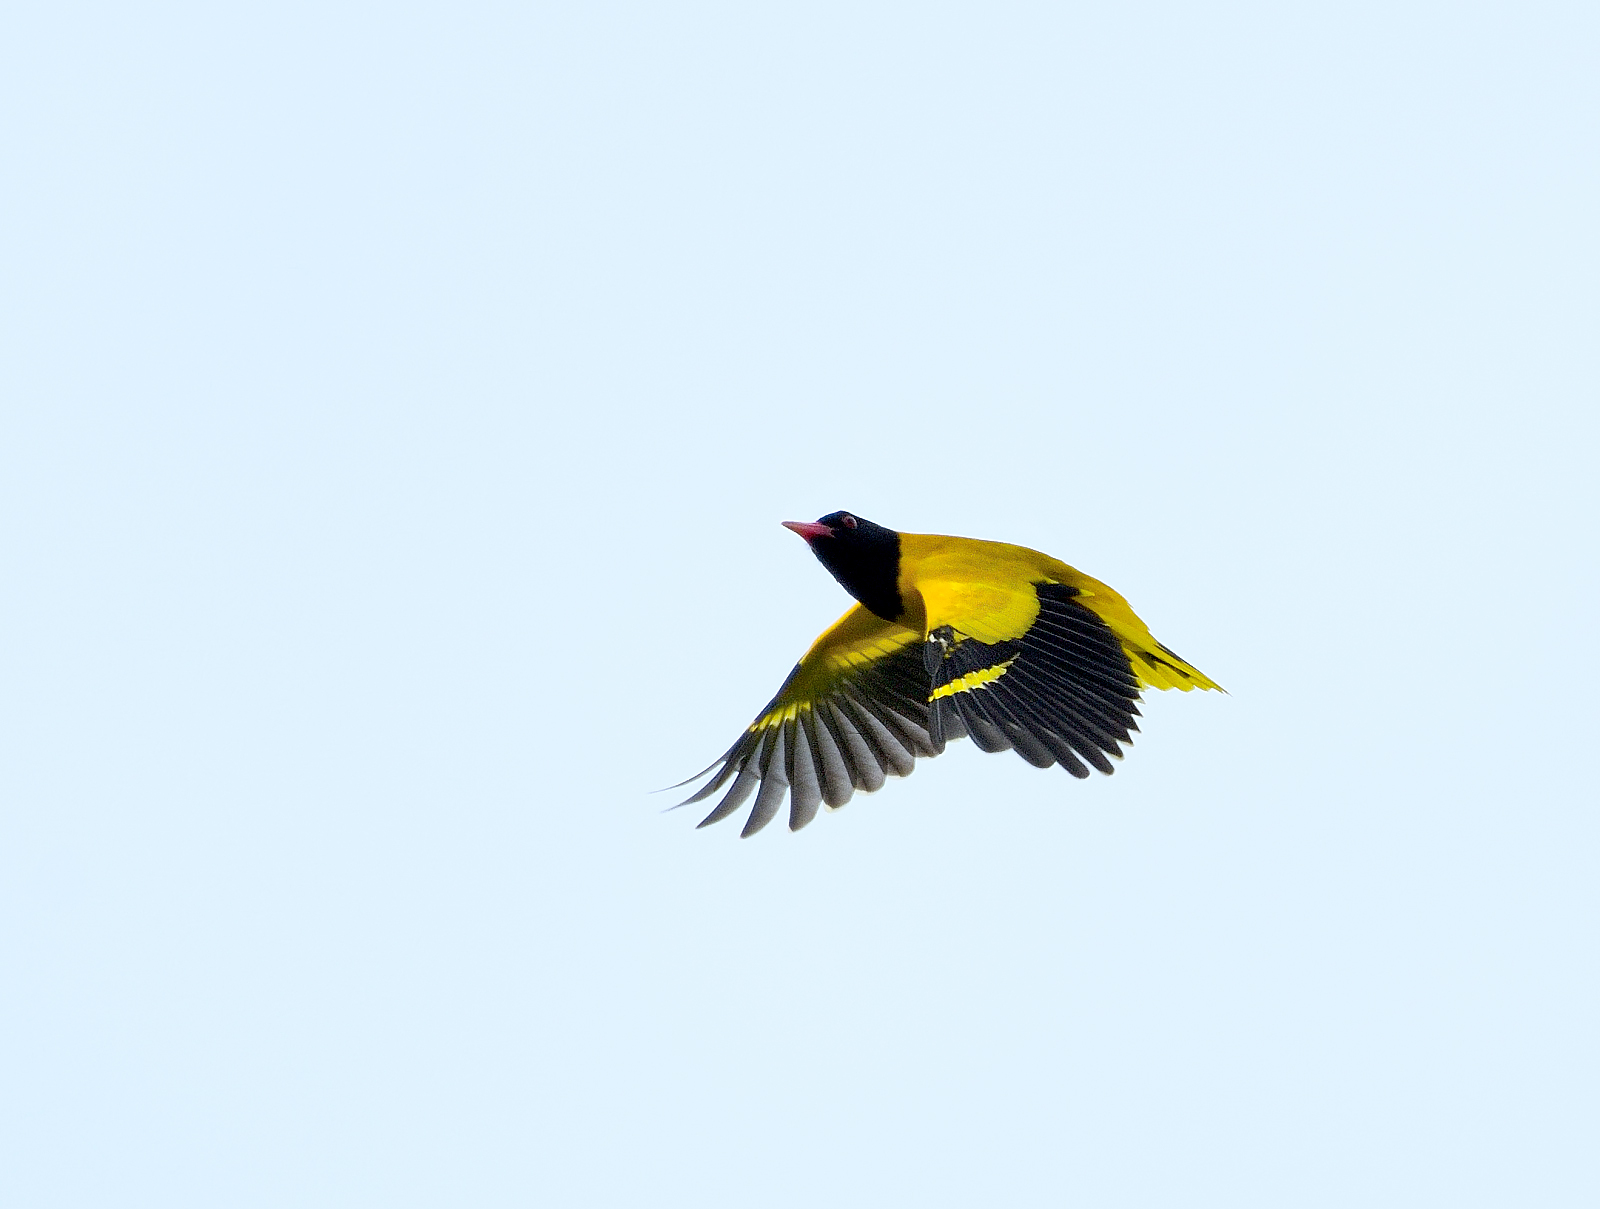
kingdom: Animalia
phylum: Chordata
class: Aves
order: Passeriformes
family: Oriolidae
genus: Oriolus
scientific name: Oriolus xanthornus
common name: Black-hooded oriole
